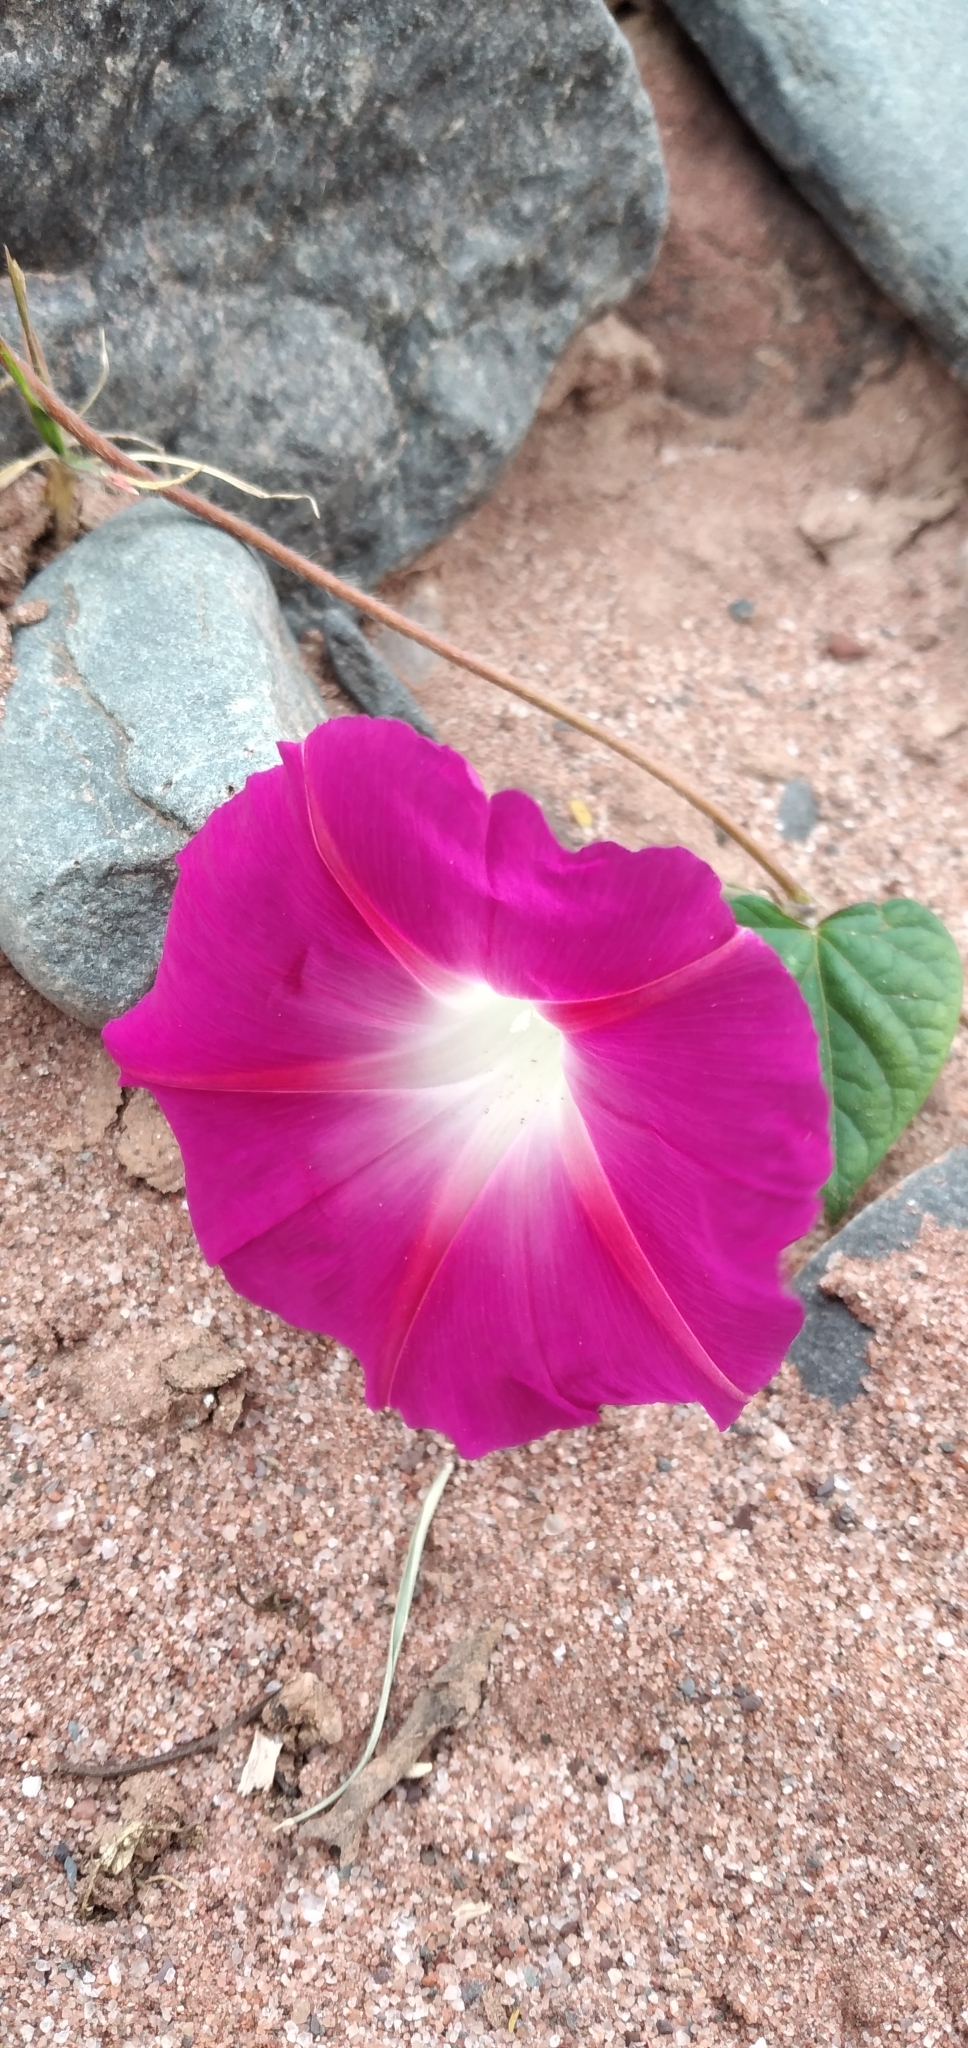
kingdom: Plantae
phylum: Tracheophyta
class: Magnoliopsida
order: Solanales
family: Convolvulaceae
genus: Ipomoea
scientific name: Ipomoea purpurea
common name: Common morning-glory
